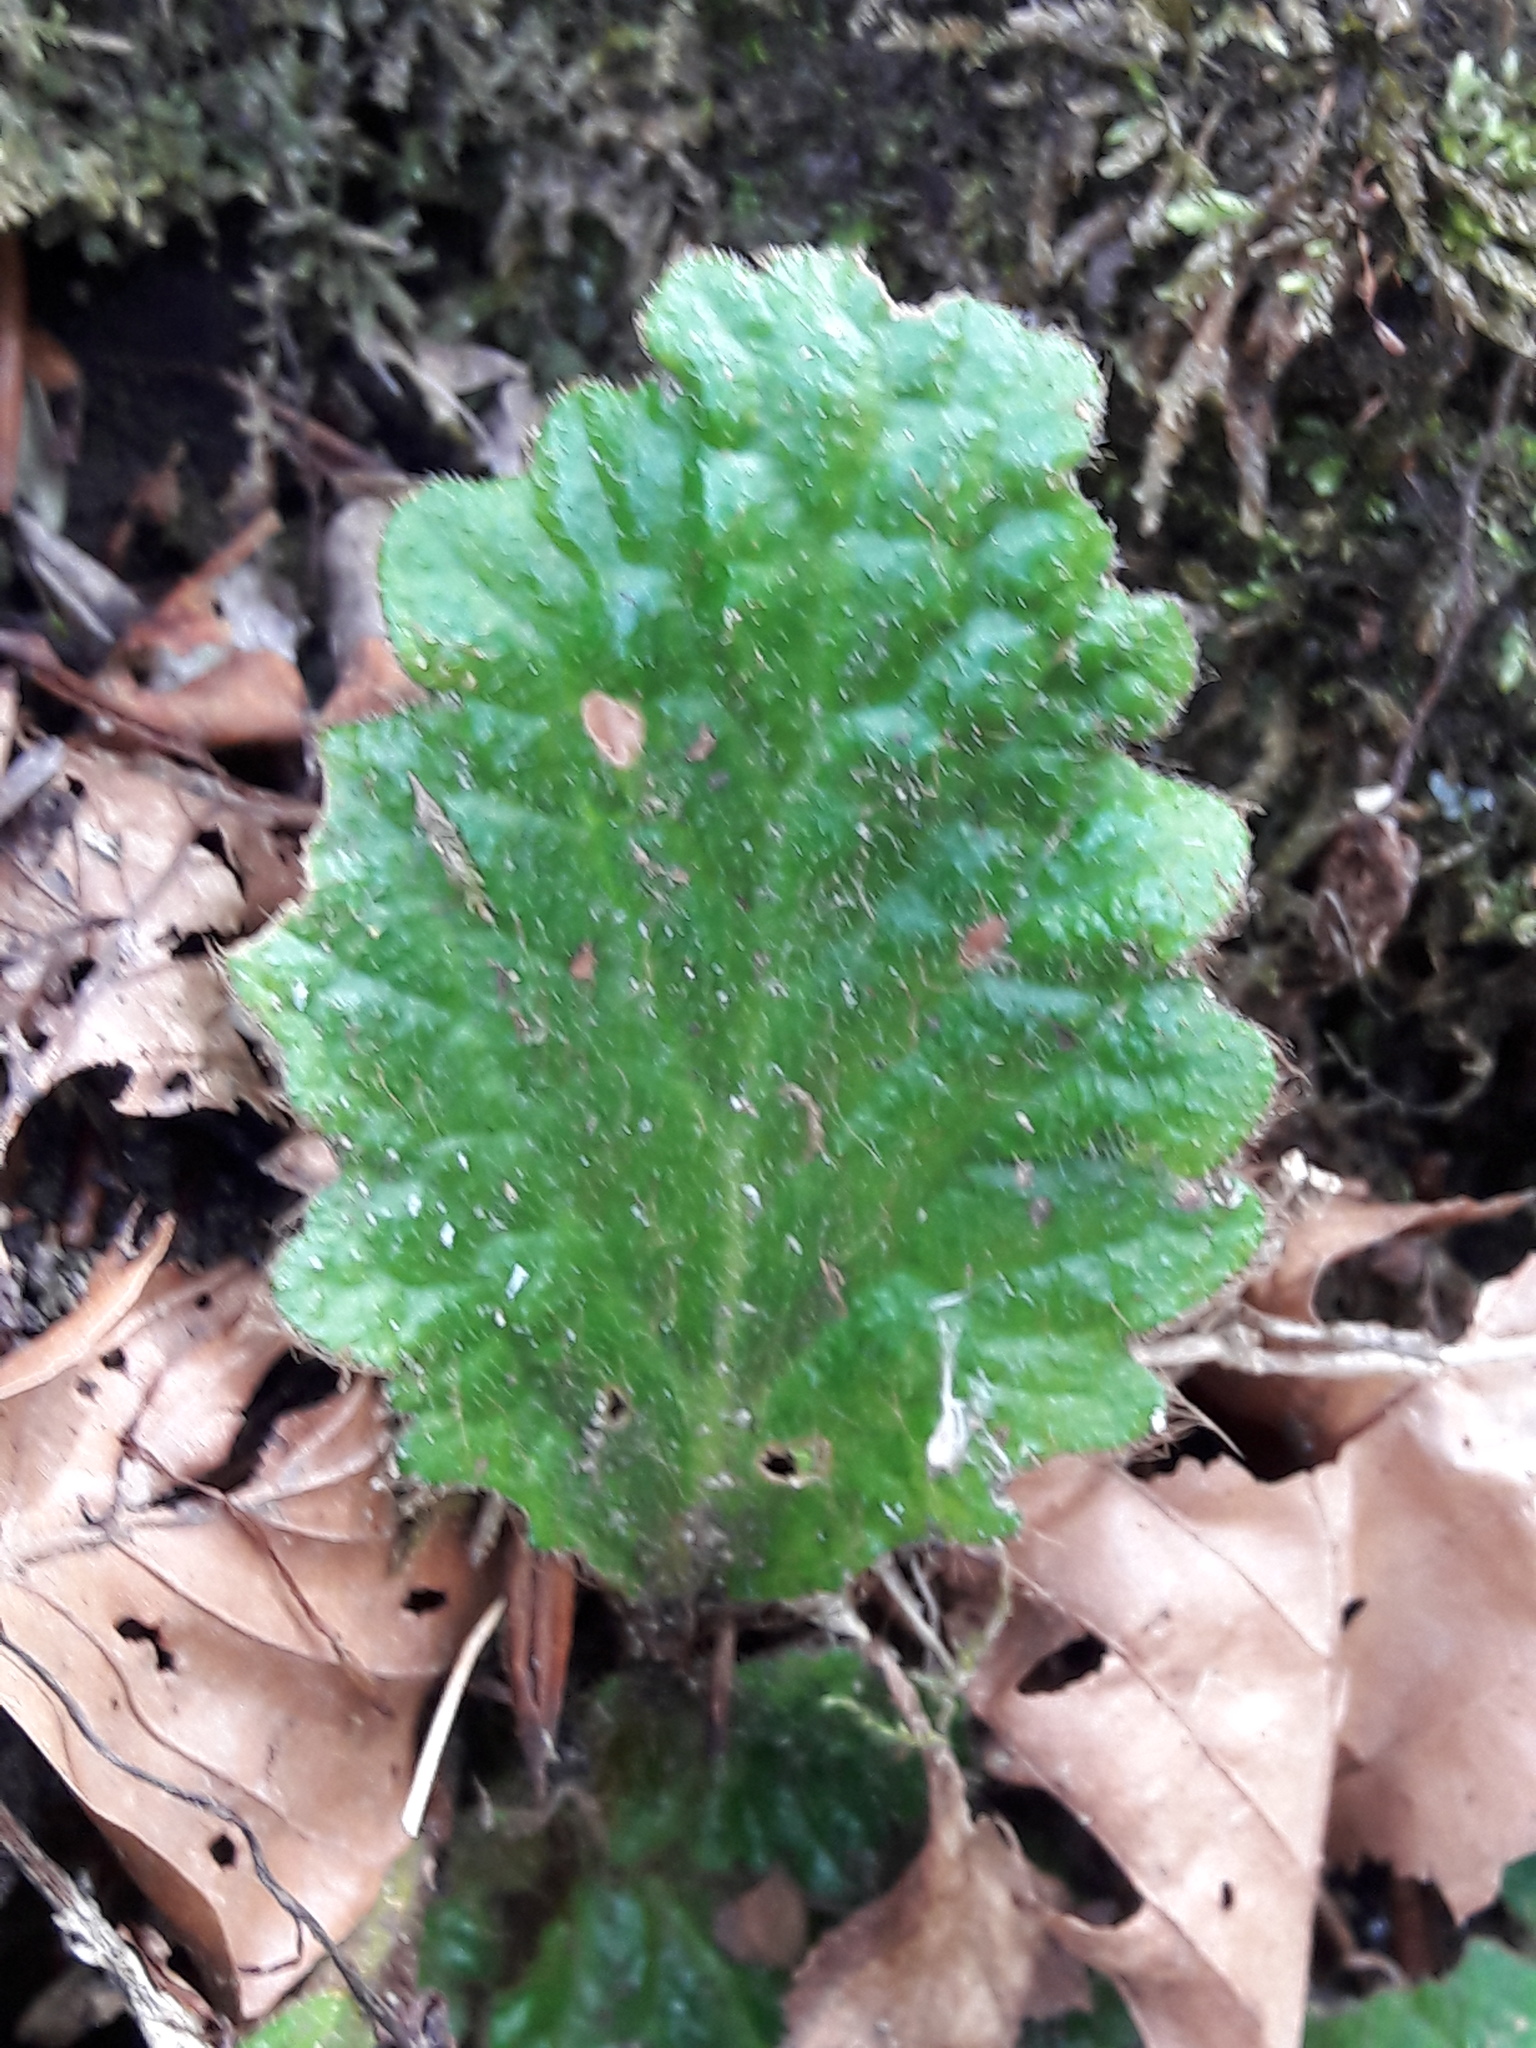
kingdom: Plantae
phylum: Tracheophyta
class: Magnoliopsida
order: Lamiales
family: Gesneriaceae
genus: Ramonda
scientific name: Ramonda myconi
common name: Pyrenean-violet
